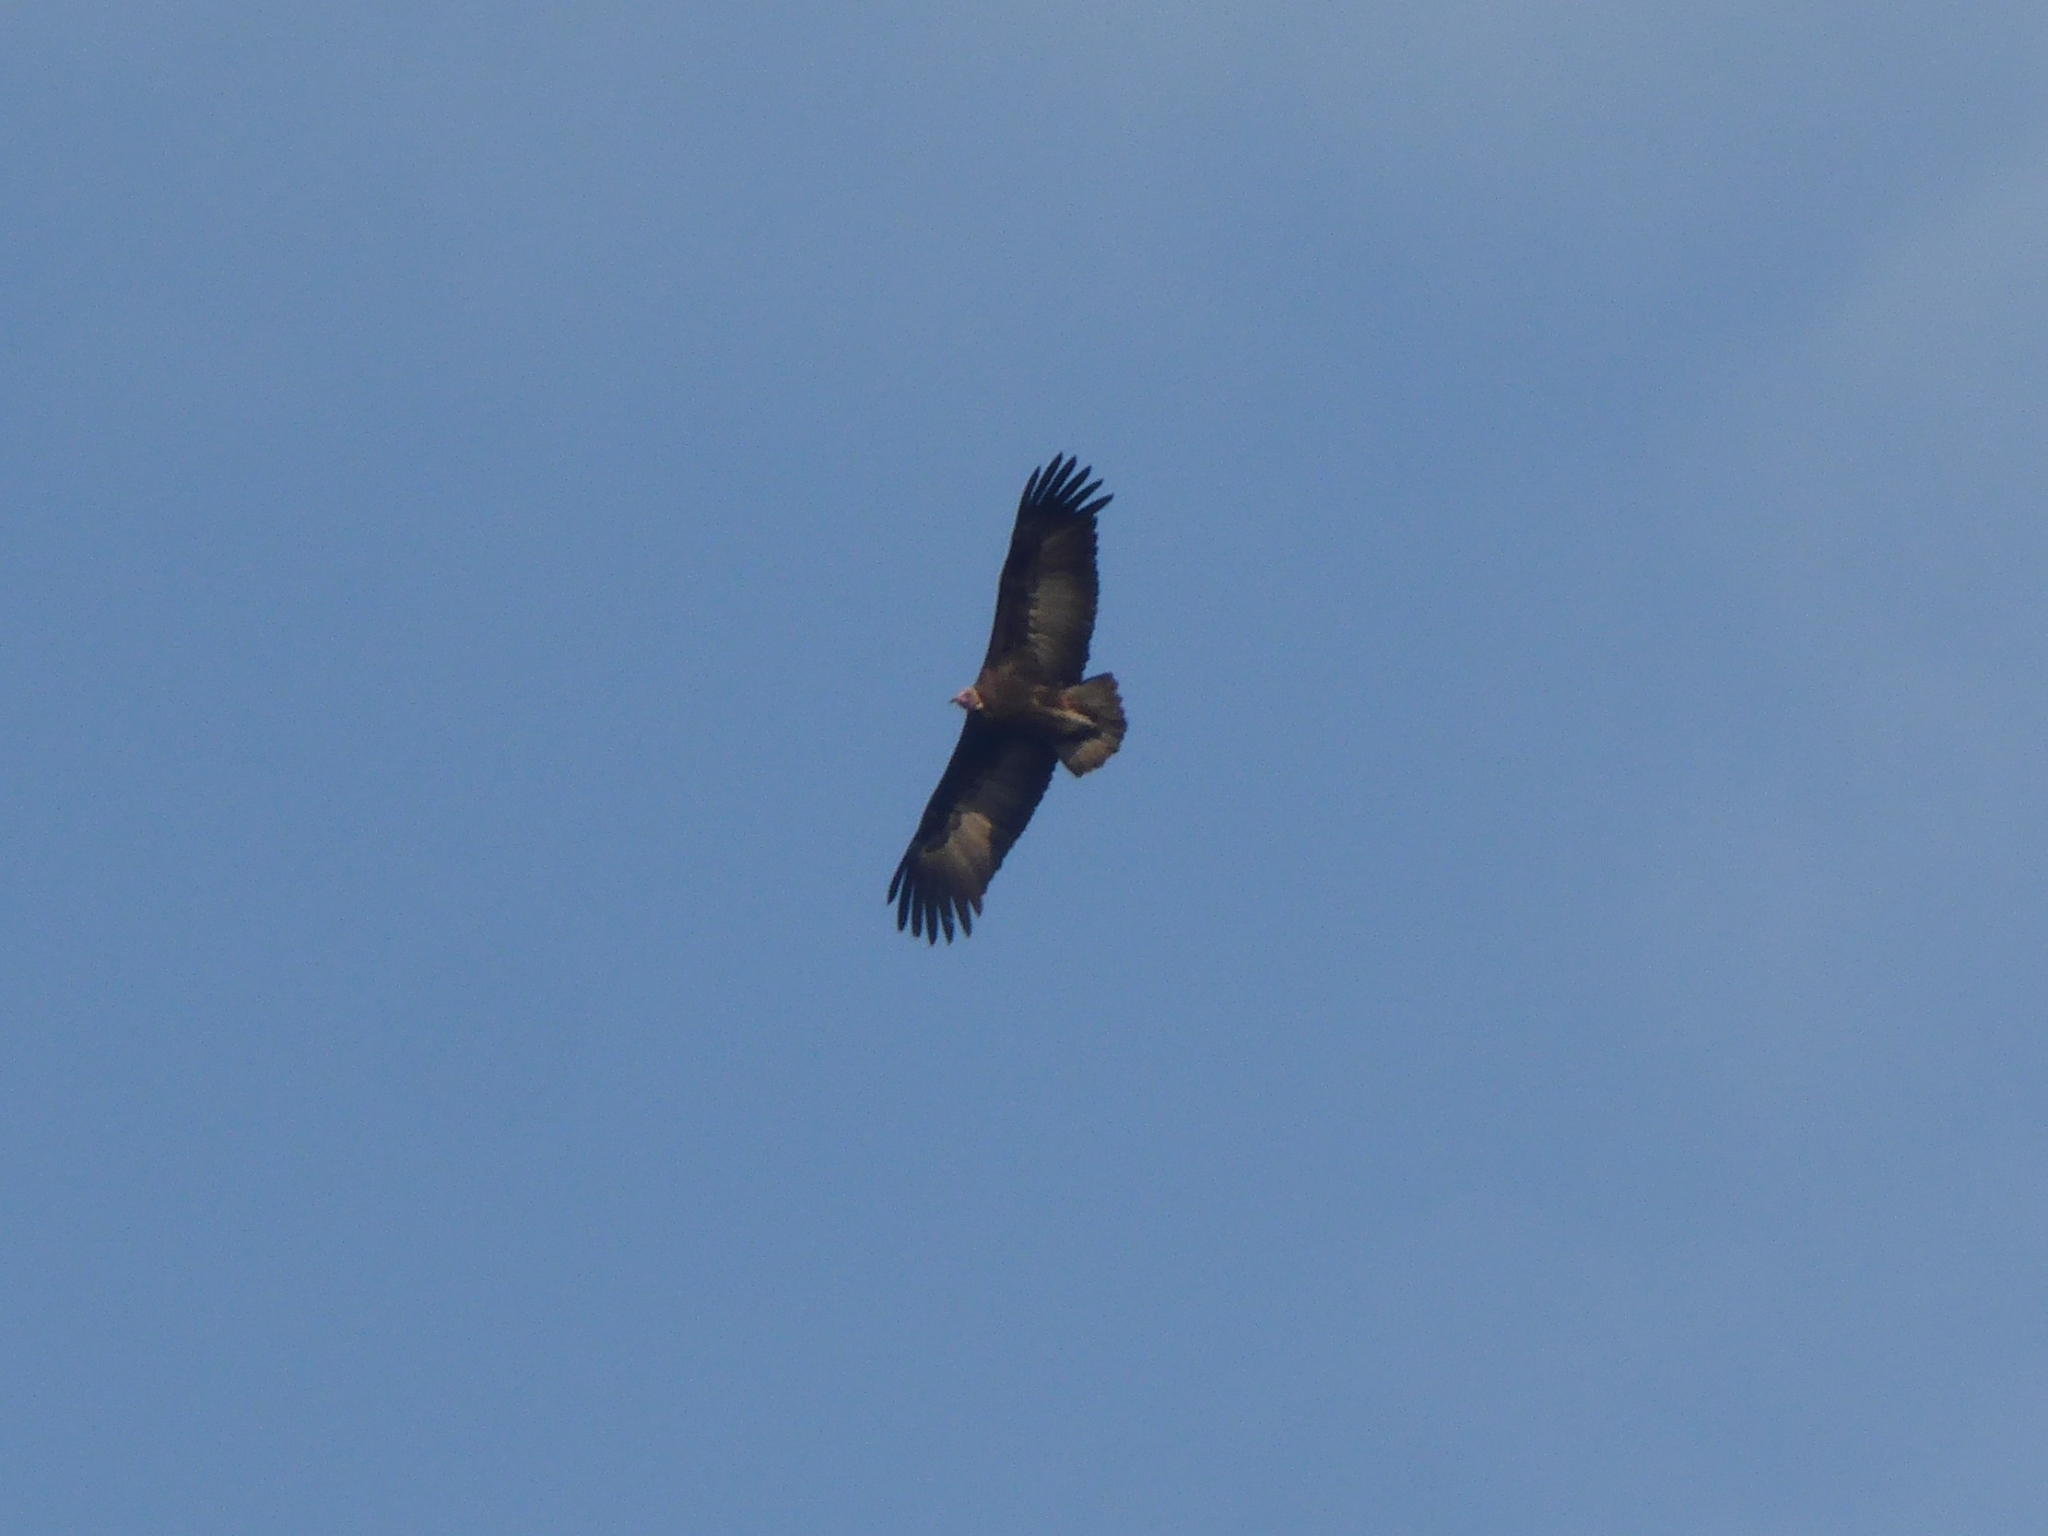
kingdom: Animalia
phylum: Chordata
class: Aves
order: Accipitriformes
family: Accipitridae
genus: Necrosyrtes
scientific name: Necrosyrtes monachus
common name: Hooded vulture
